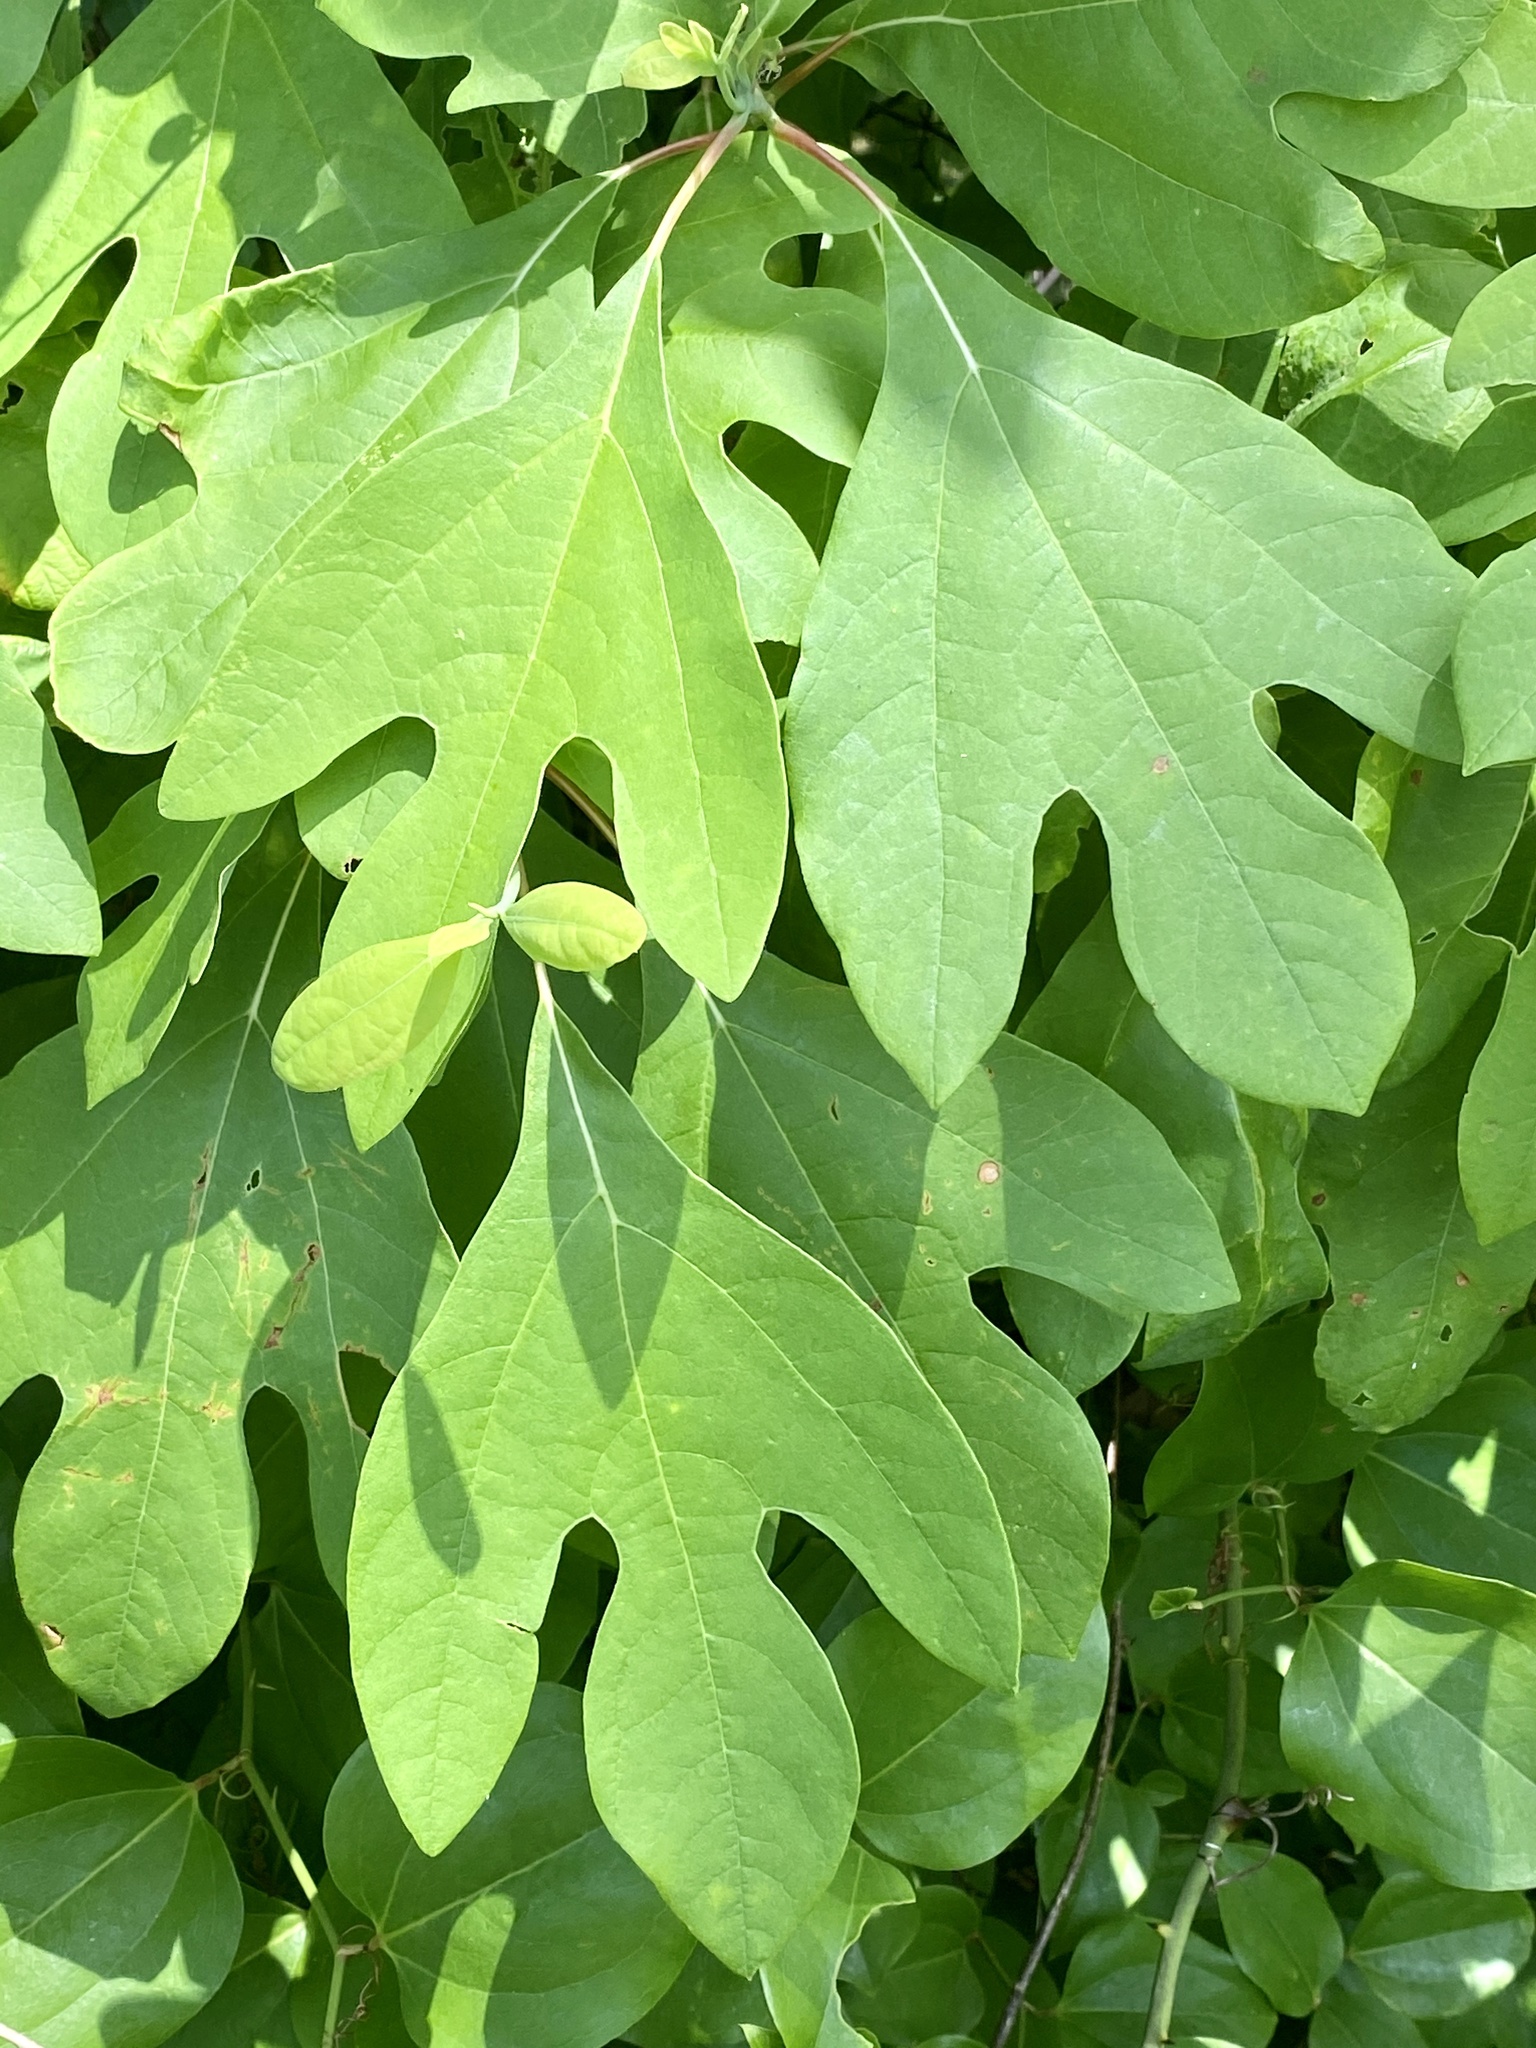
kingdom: Plantae
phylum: Tracheophyta
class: Magnoliopsida
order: Laurales
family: Lauraceae
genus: Sassafras
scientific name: Sassafras albidum
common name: Sassafras
